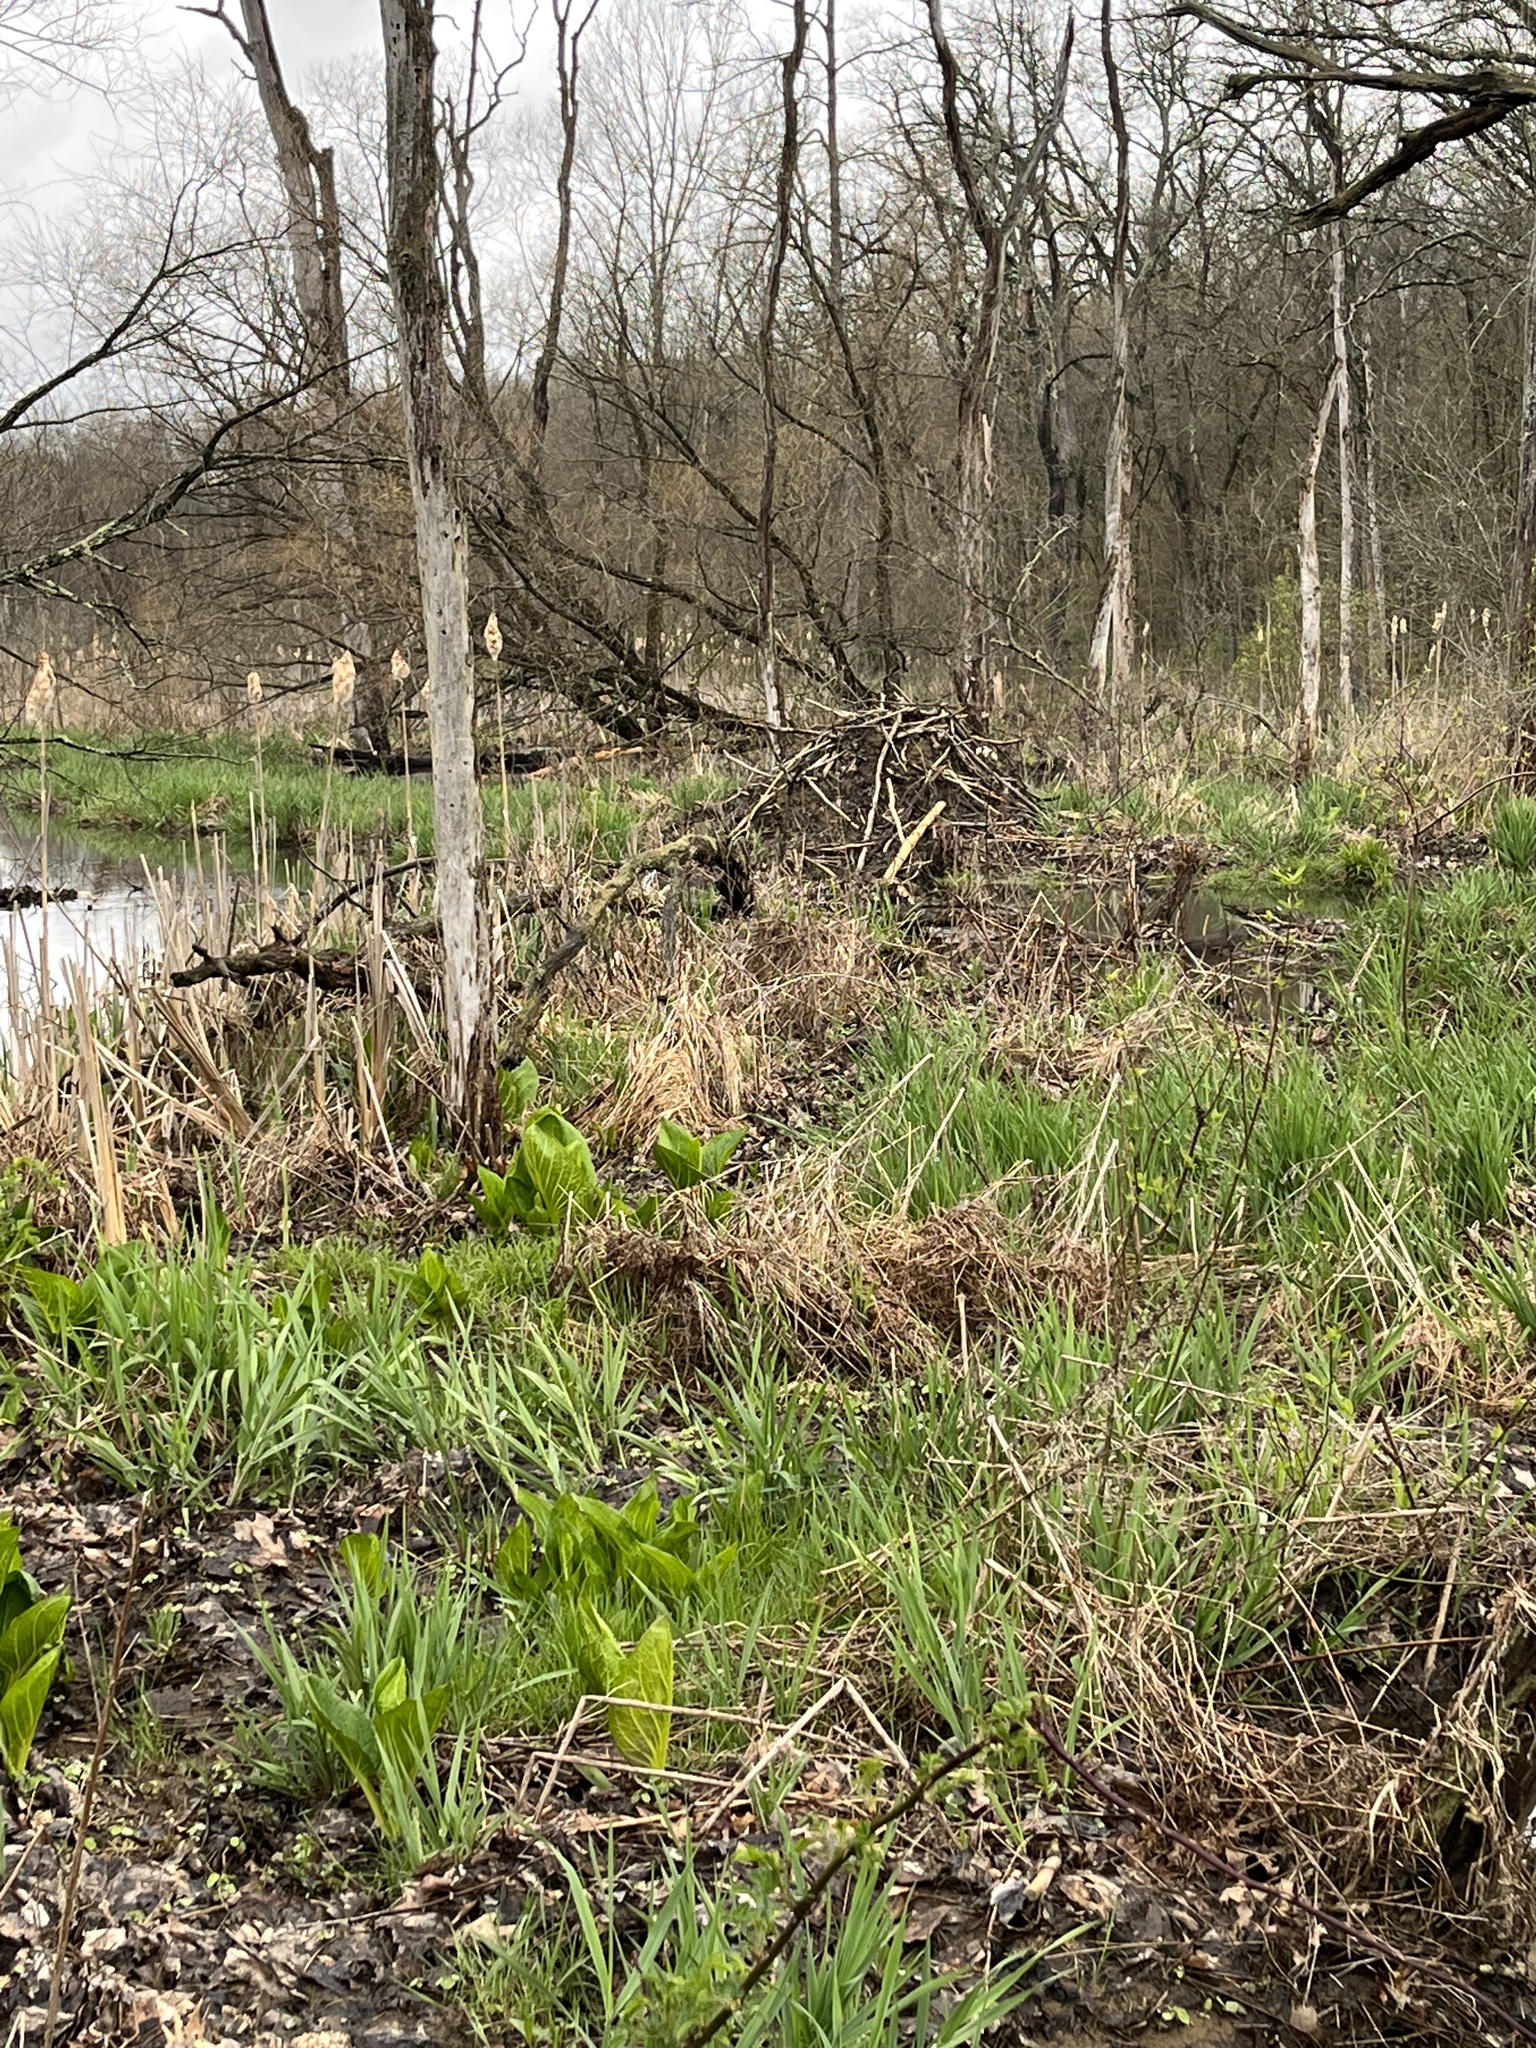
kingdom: Animalia
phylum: Chordata
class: Mammalia
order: Rodentia
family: Castoridae
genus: Castor
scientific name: Castor canadensis
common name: American beaver
